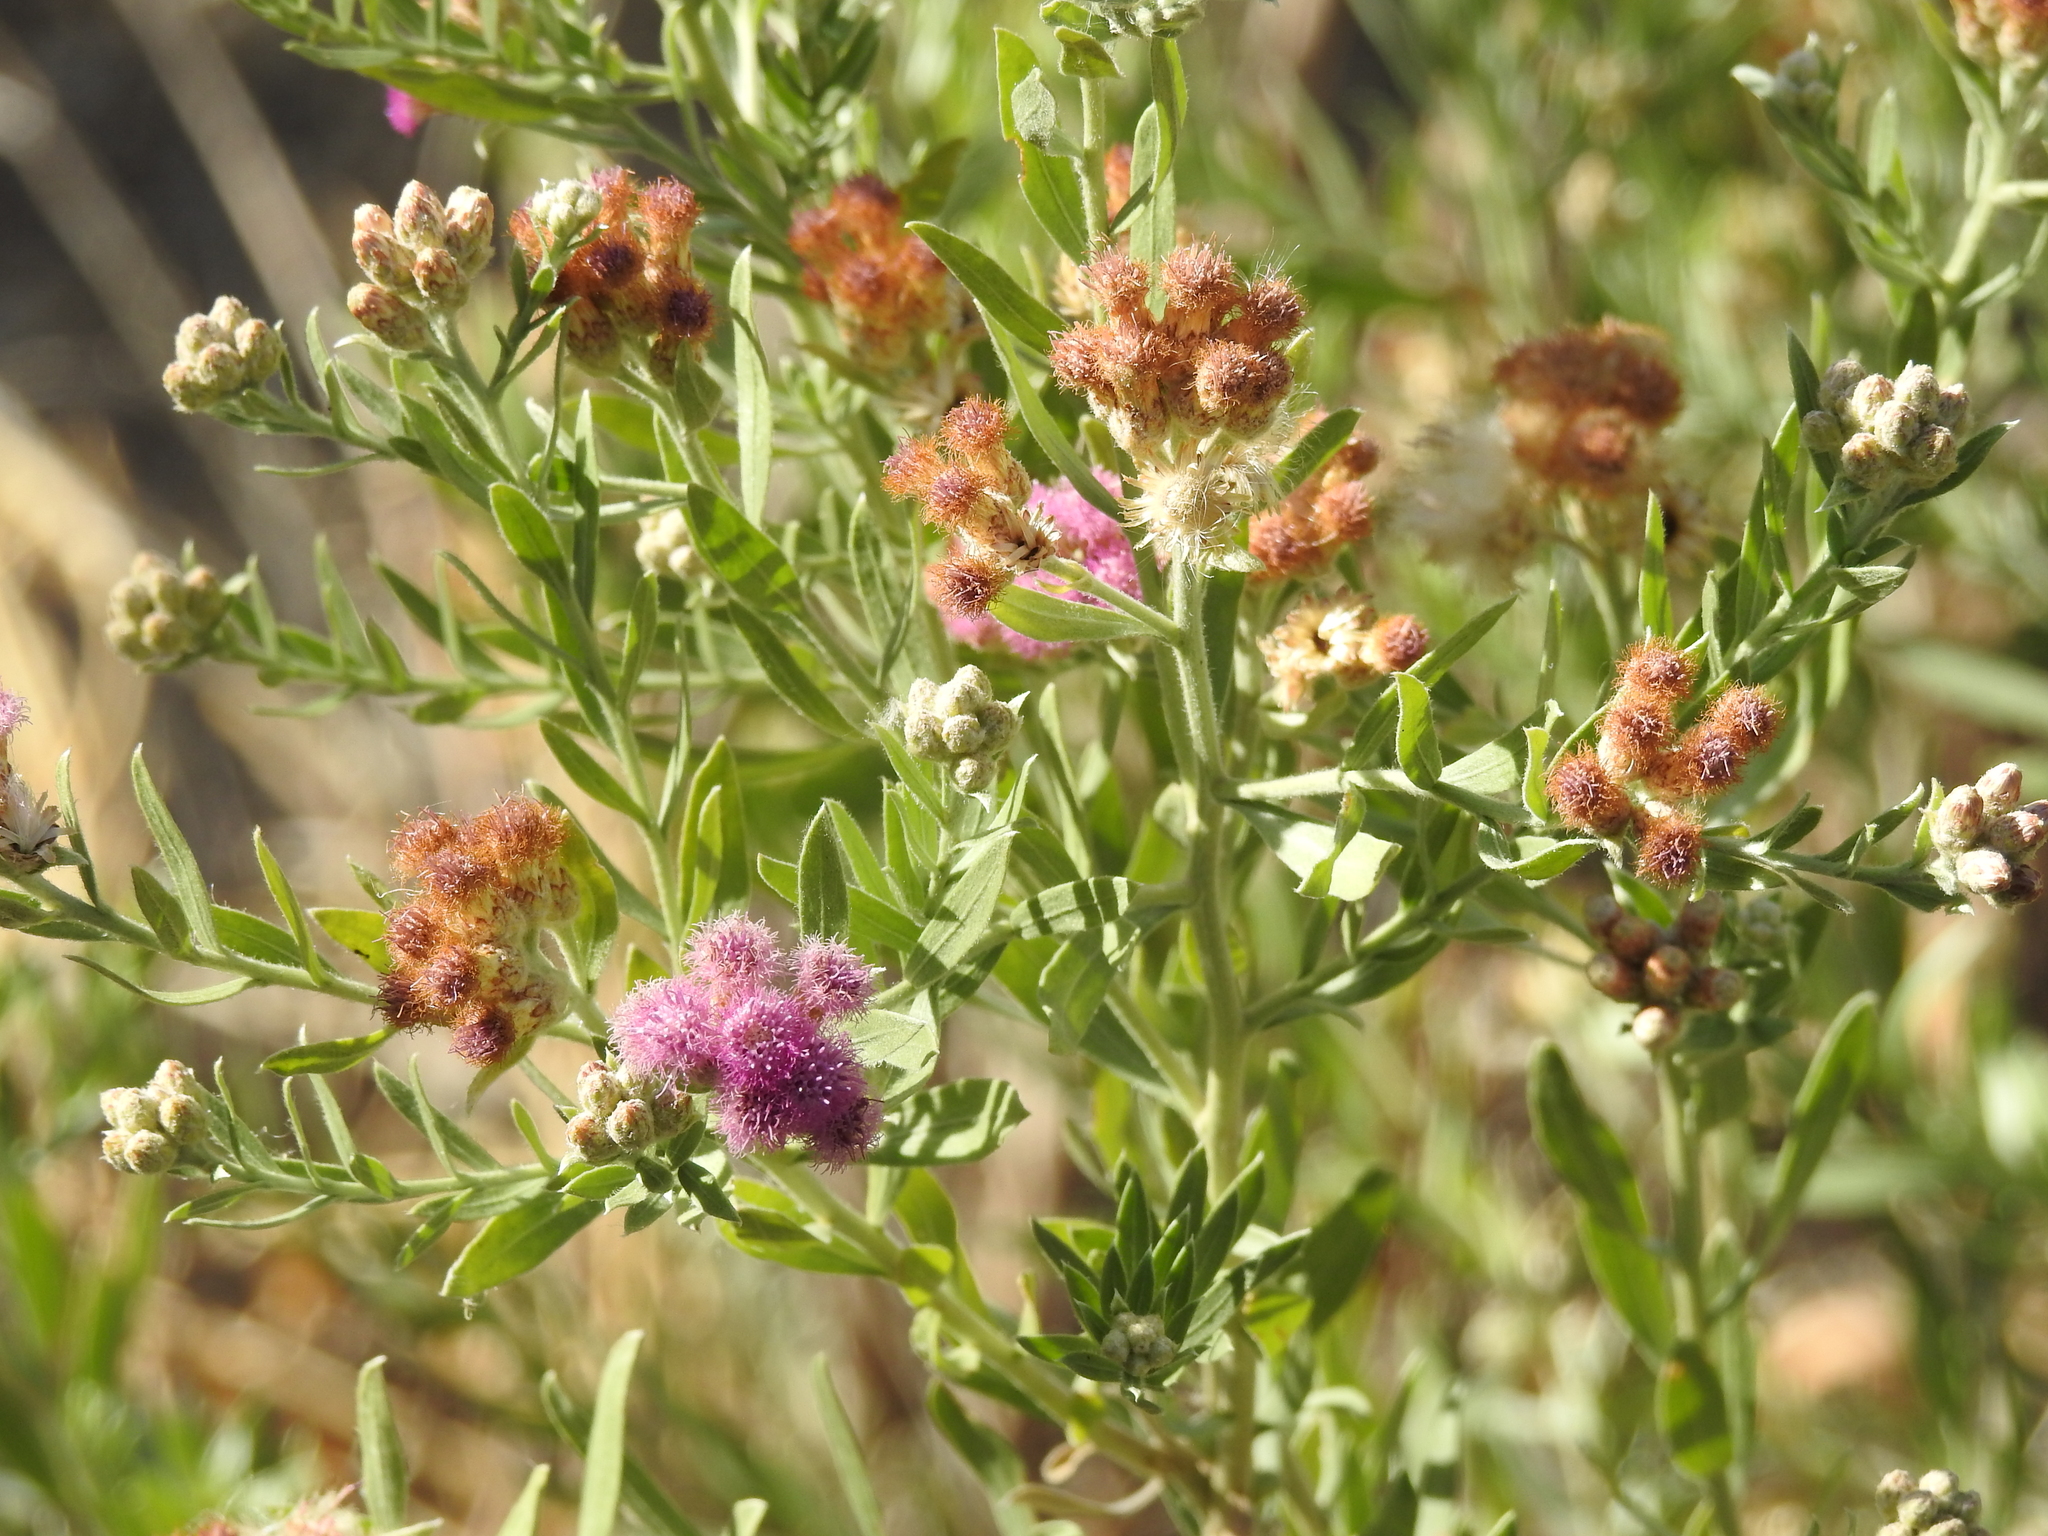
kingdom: Plantae
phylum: Tracheophyta
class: Magnoliopsida
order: Asterales
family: Asteraceae
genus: Pluchea
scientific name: Pluchea sericea
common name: Arrow-weed
